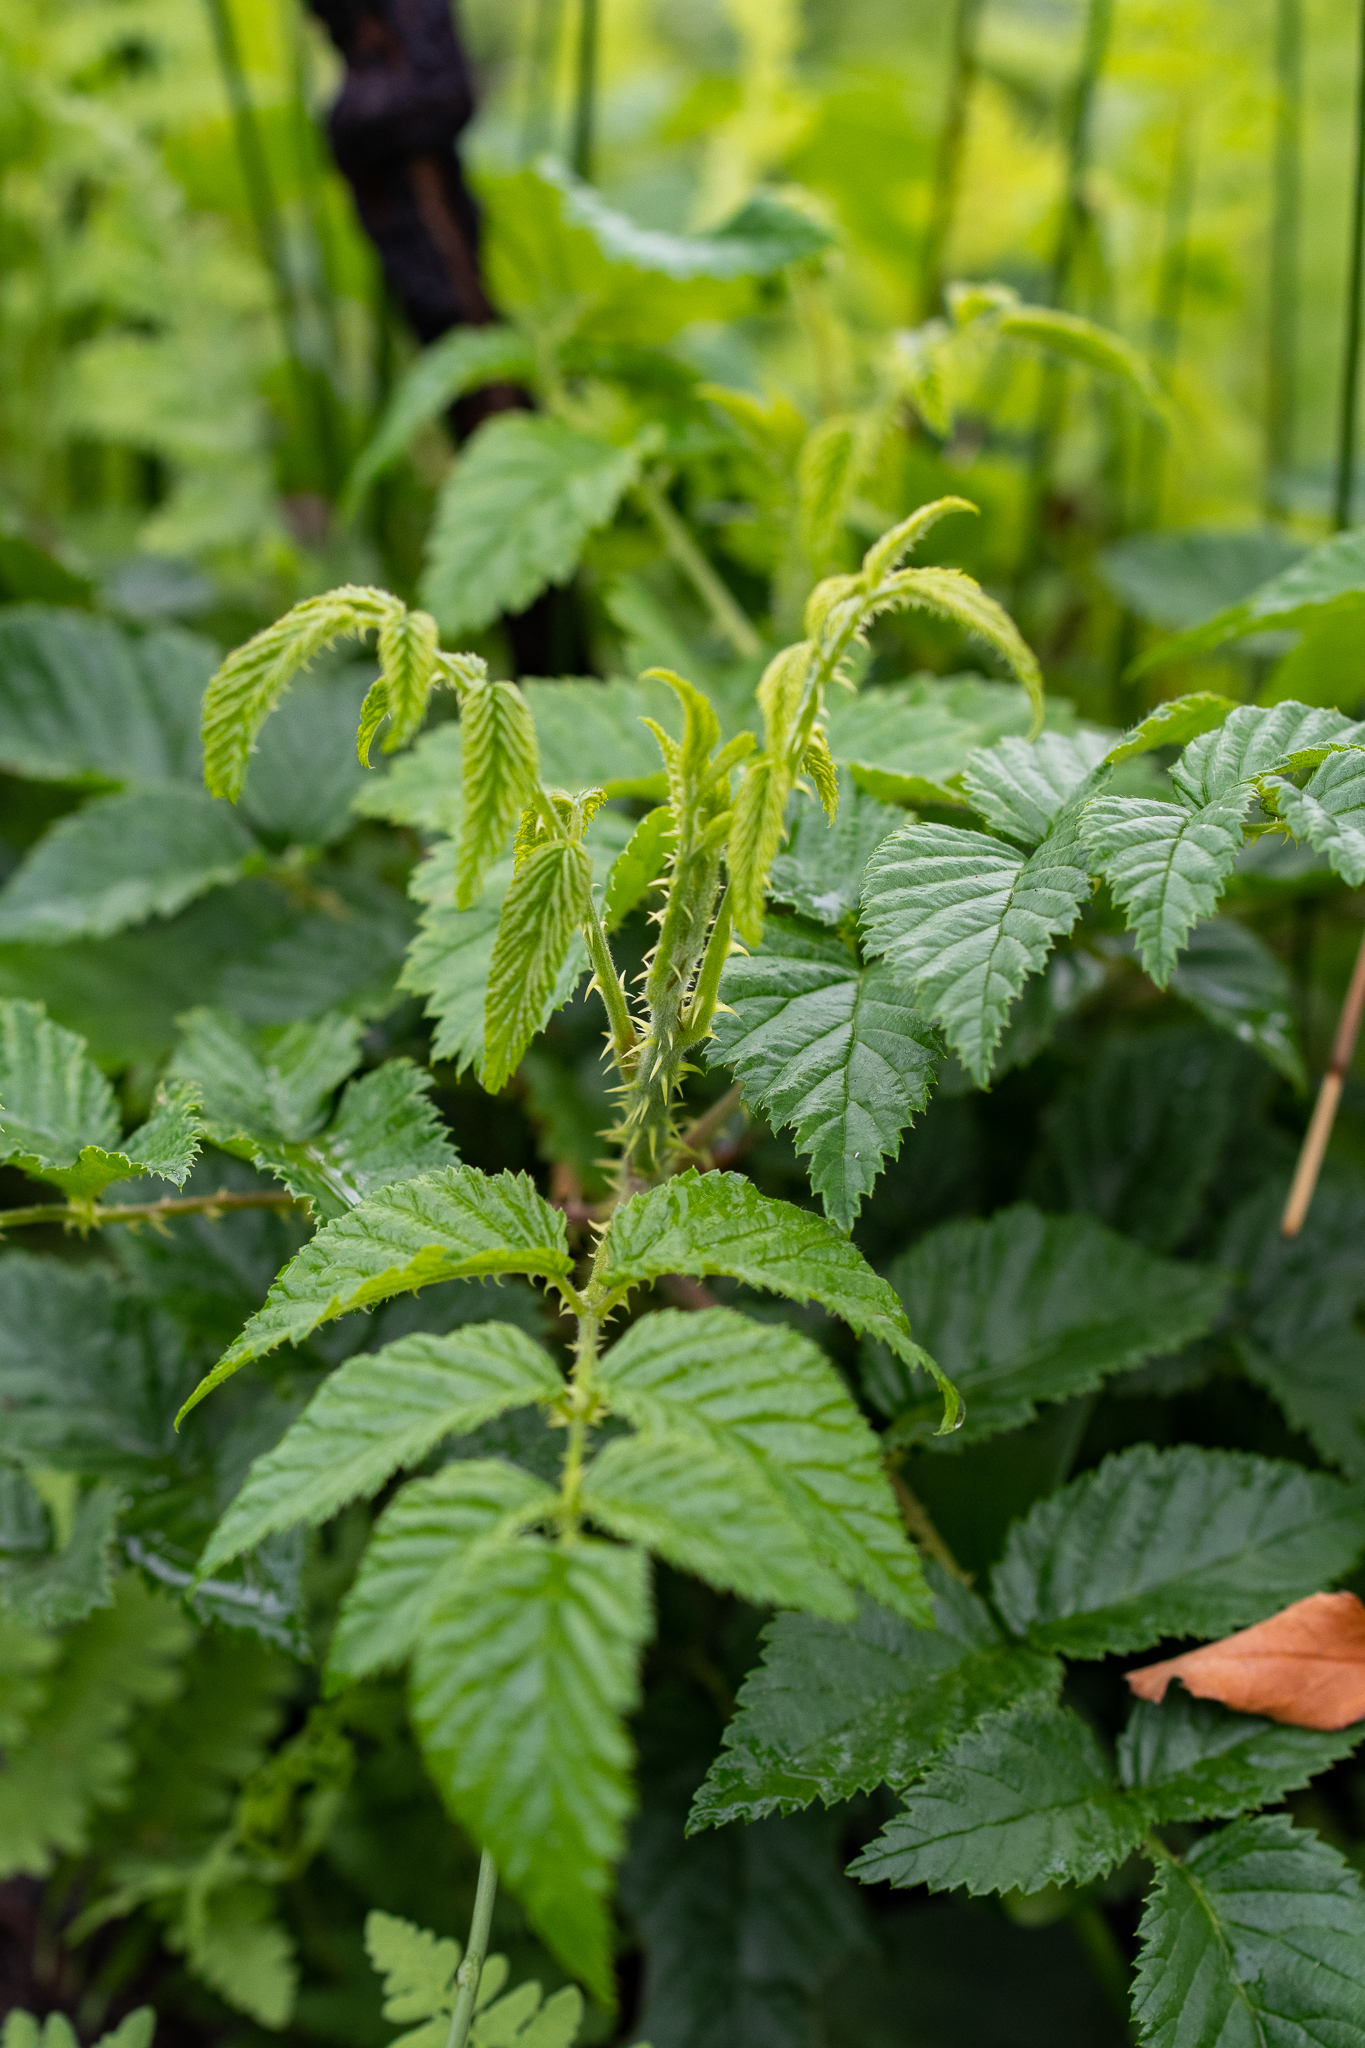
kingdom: Plantae
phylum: Tracheophyta
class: Magnoliopsida
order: Rosales
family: Rosaceae
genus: Rubus
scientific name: Rubus pinnatus
